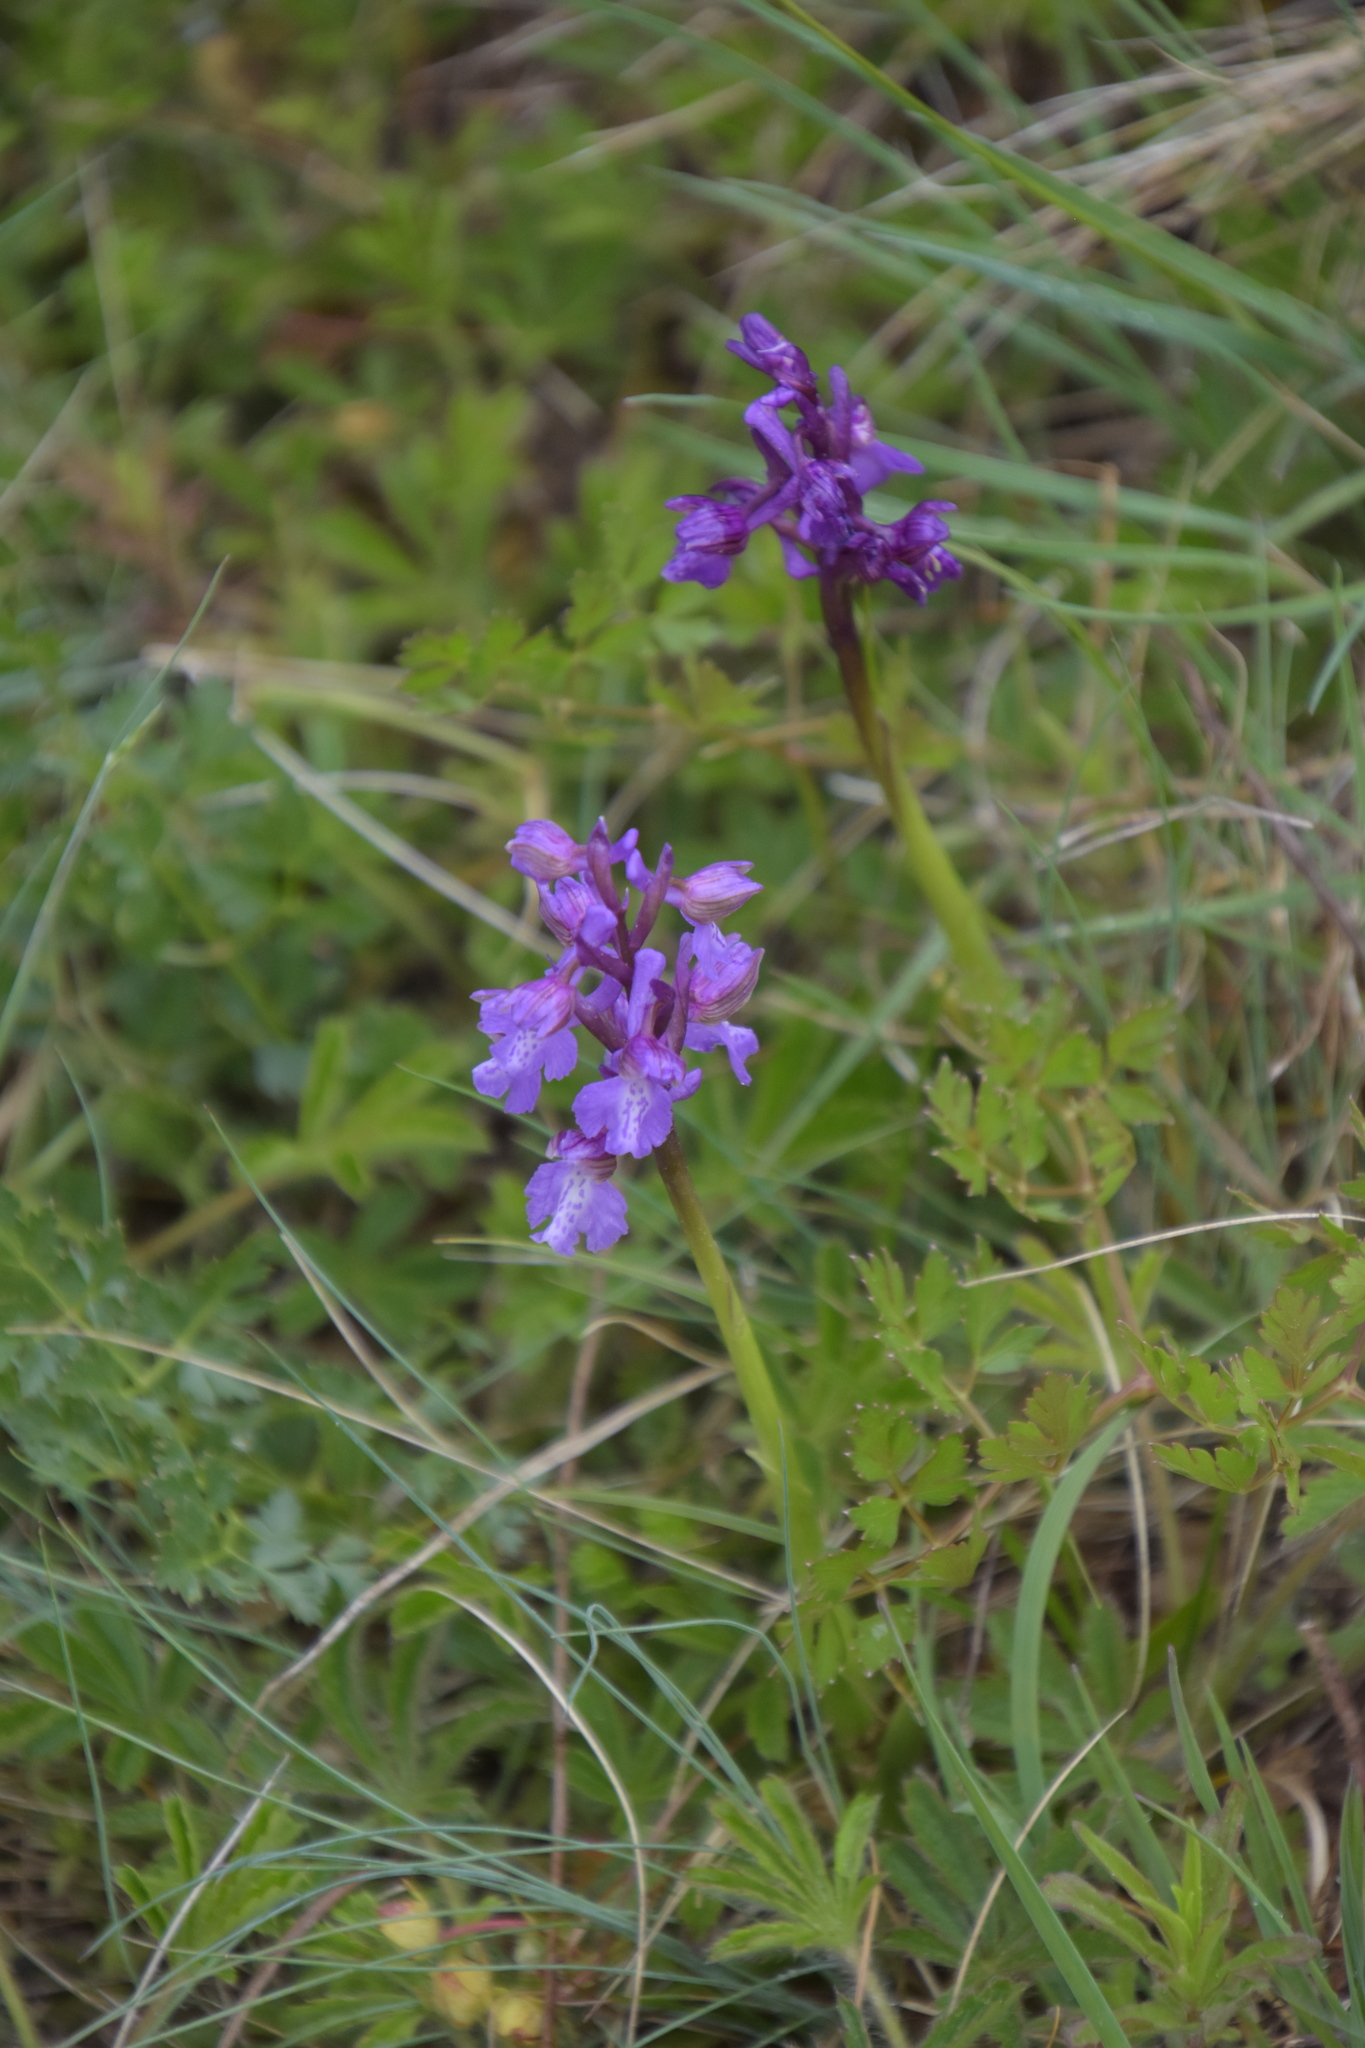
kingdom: Plantae
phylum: Tracheophyta
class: Liliopsida
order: Asparagales
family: Orchidaceae
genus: Anacamptis
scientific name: Anacamptis morio
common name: Green-winged orchid
